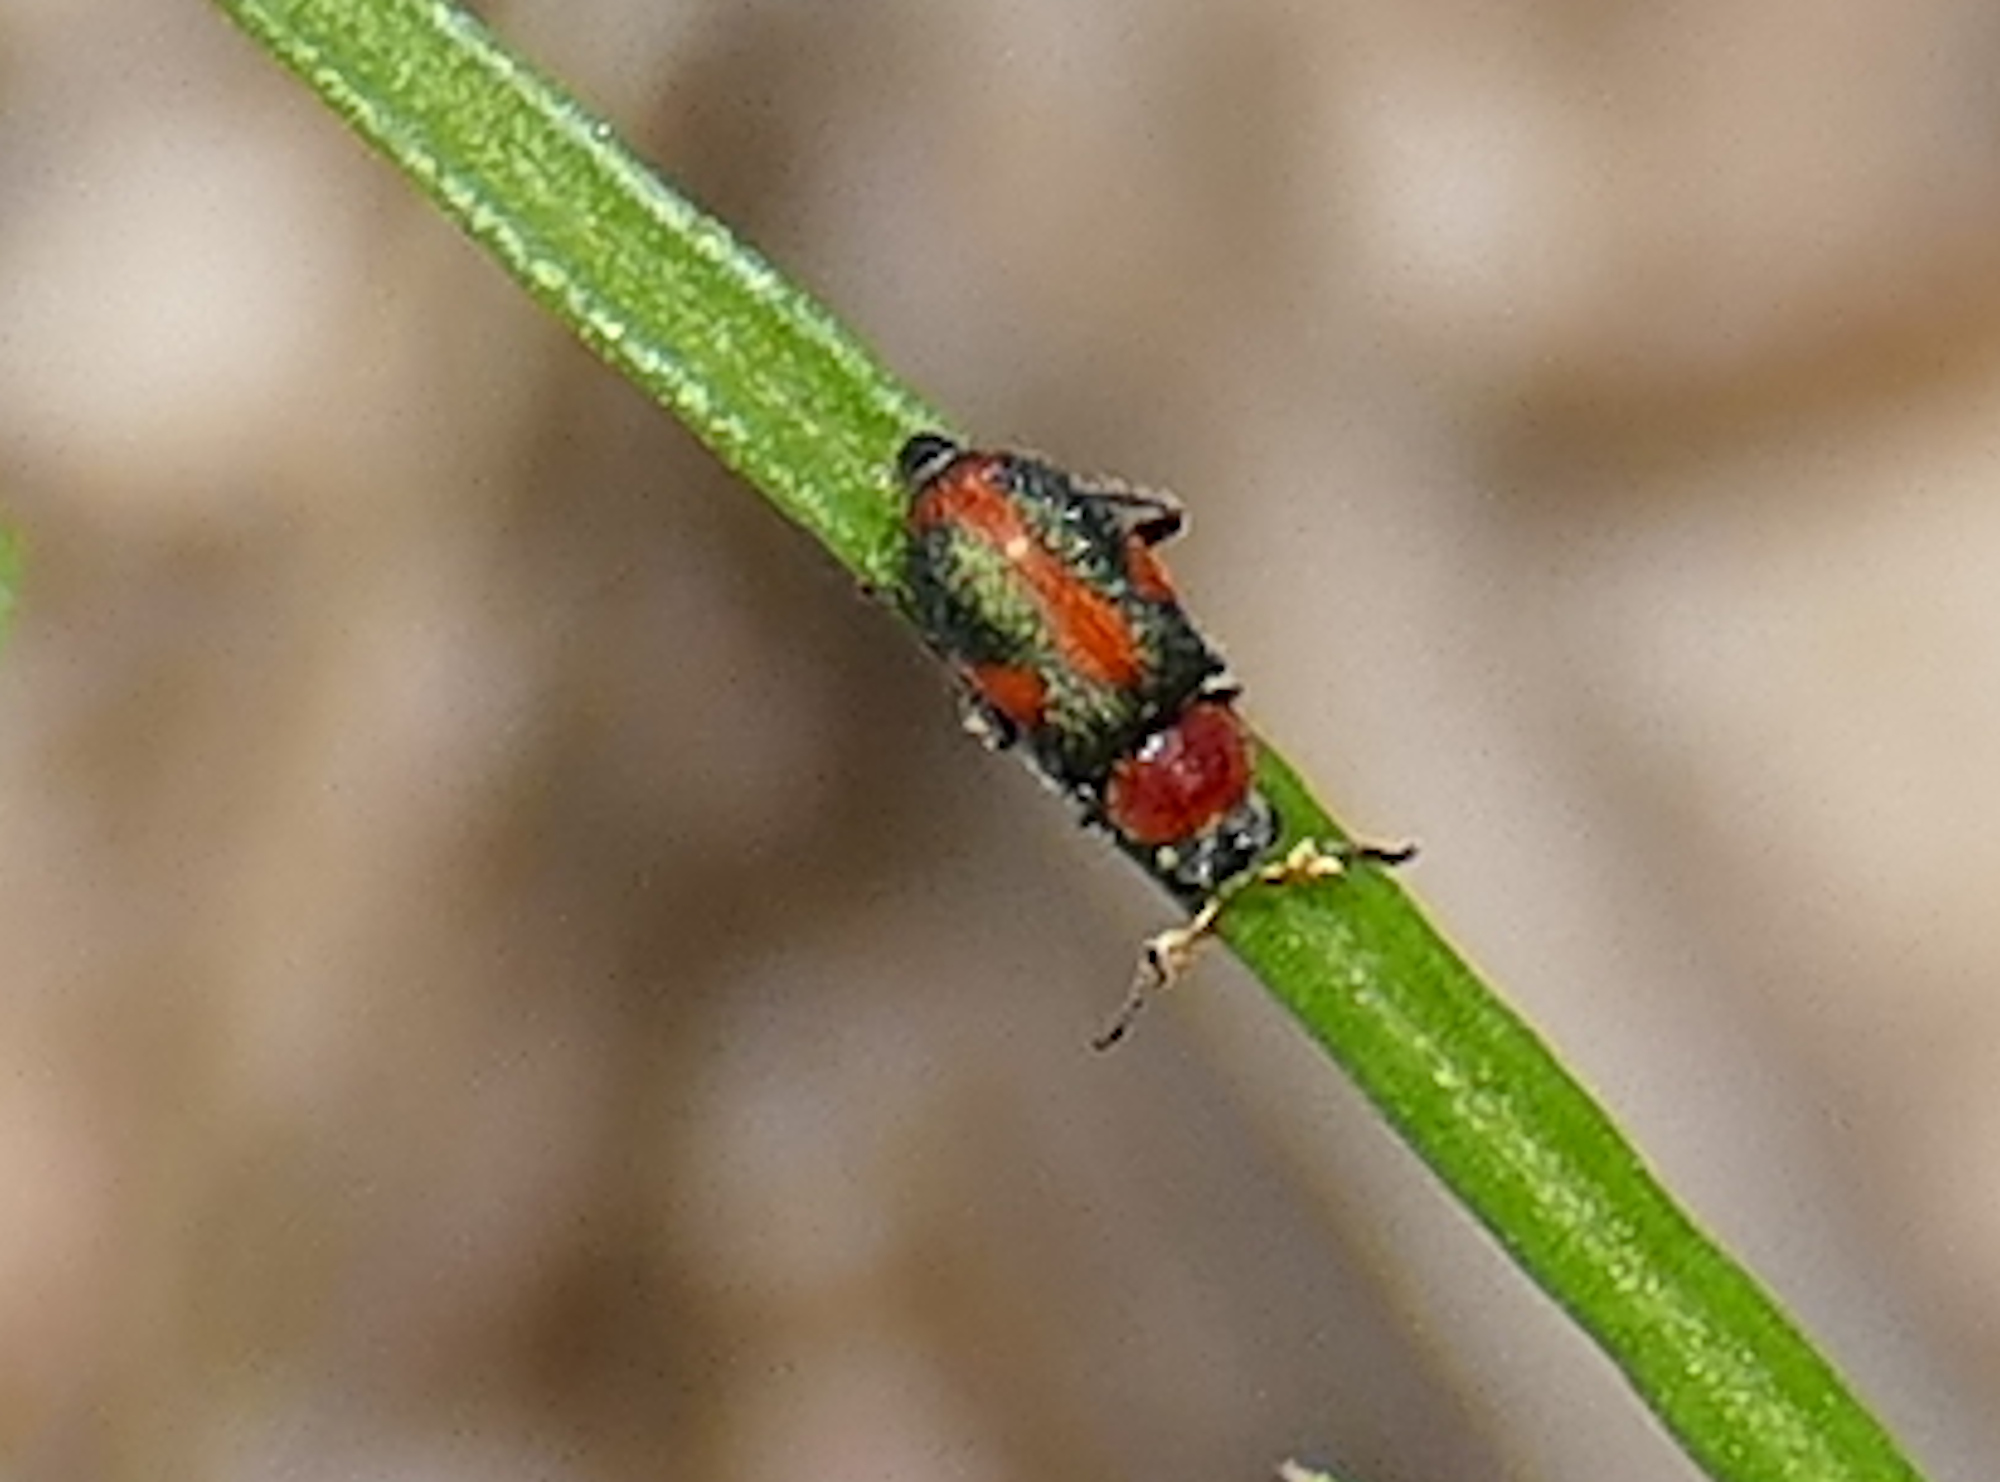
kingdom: Animalia
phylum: Arthropoda
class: Insecta
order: Coleoptera
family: Melyridae
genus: Collops
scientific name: Collops vittatus
